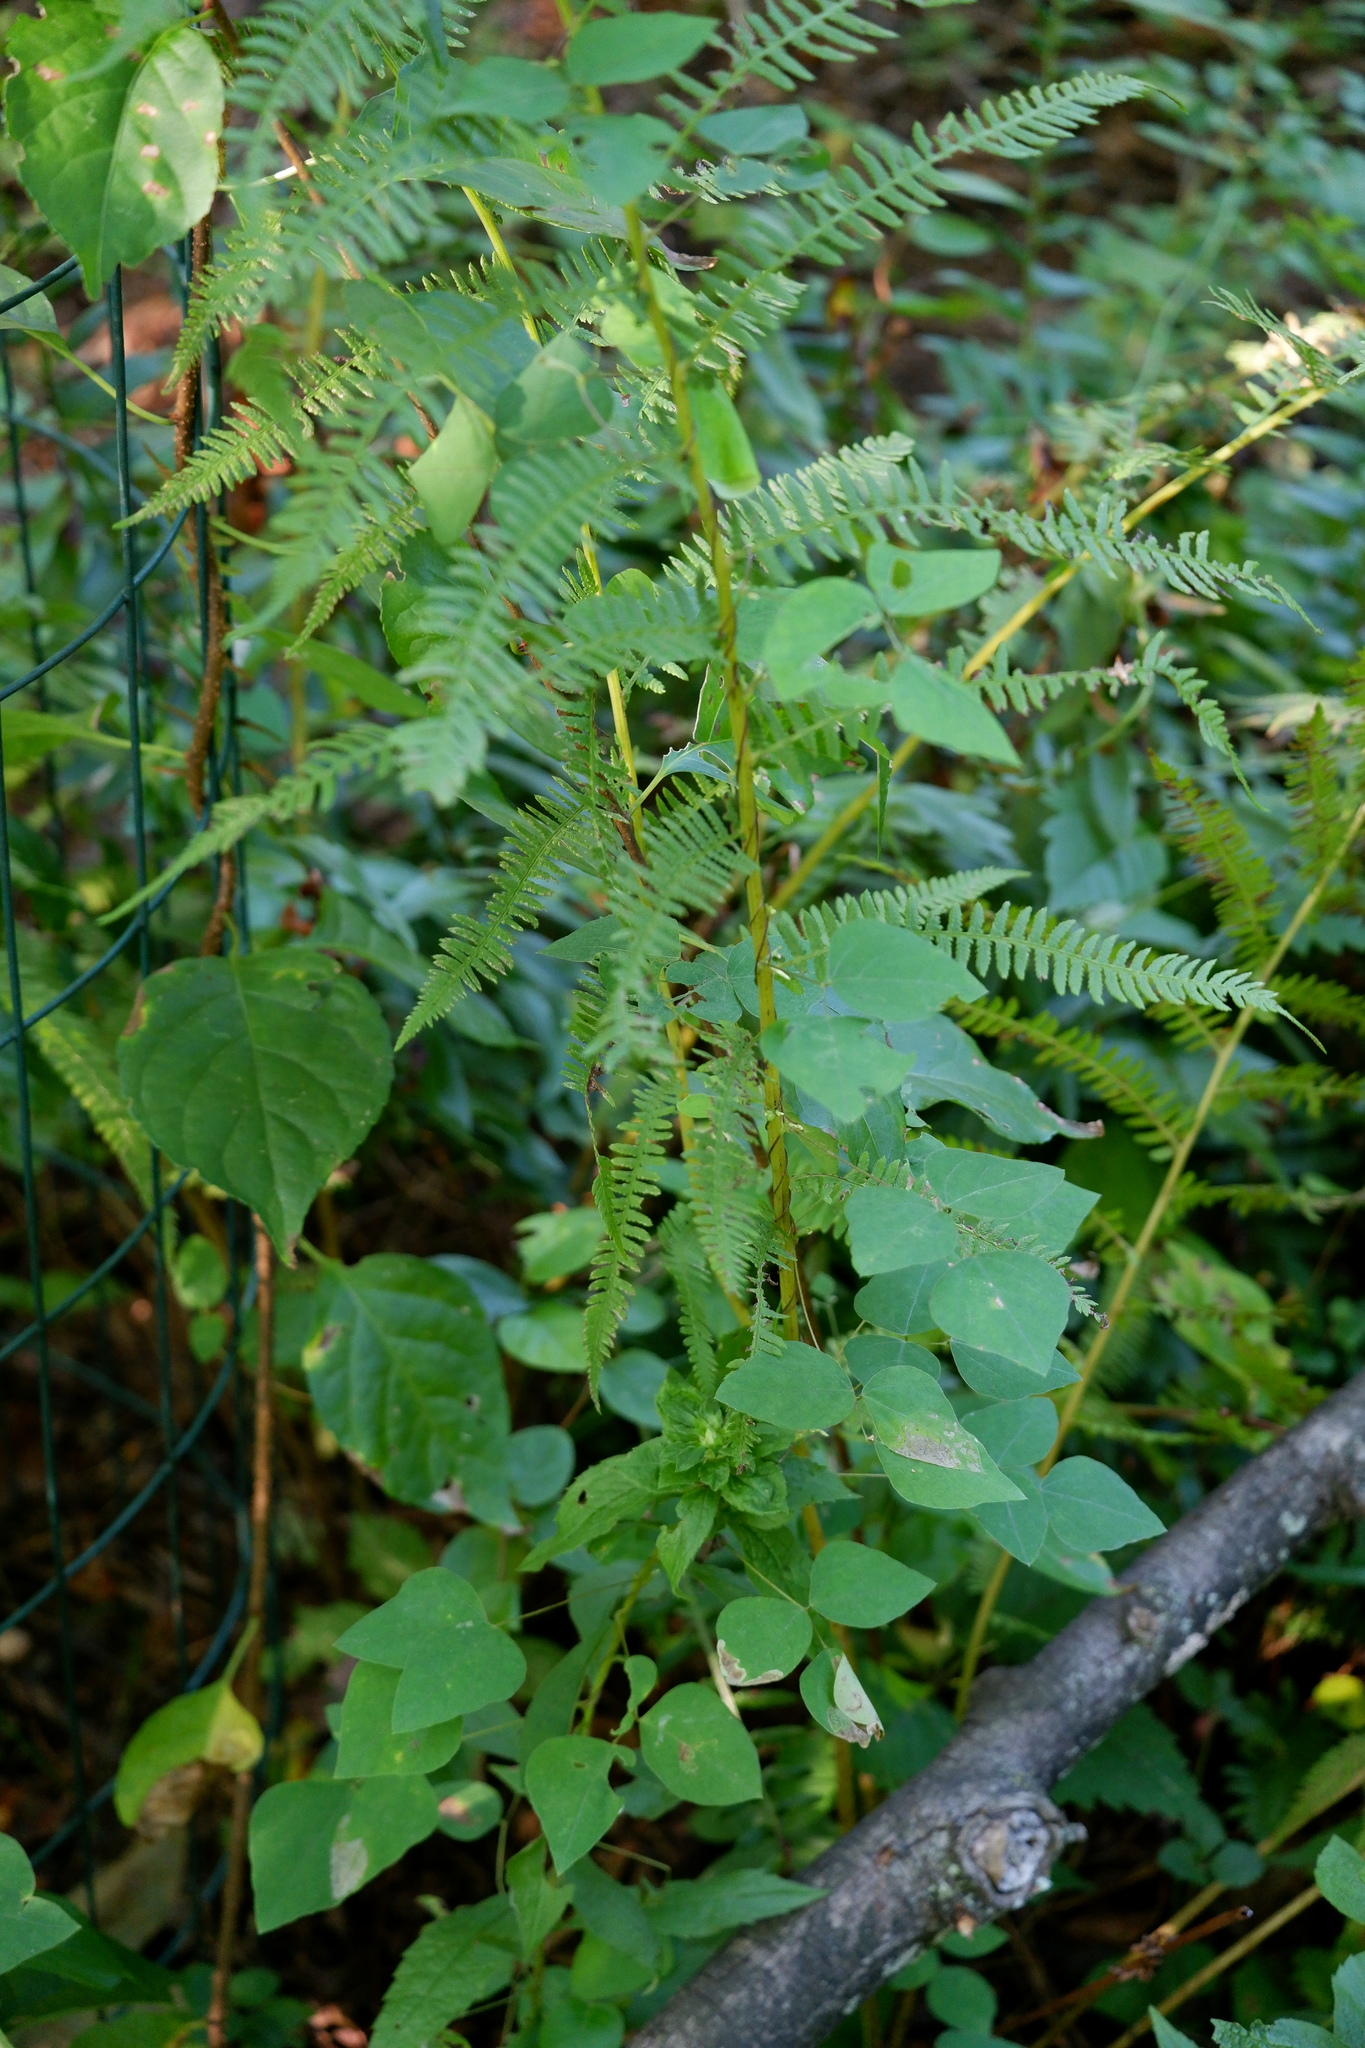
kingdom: Plantae
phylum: Tracheophyta
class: Magnoliopsida
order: Fabales
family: Fabaceae
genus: Amphicarpaea
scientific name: Amphicarpaea bracteata
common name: American hog peanut
